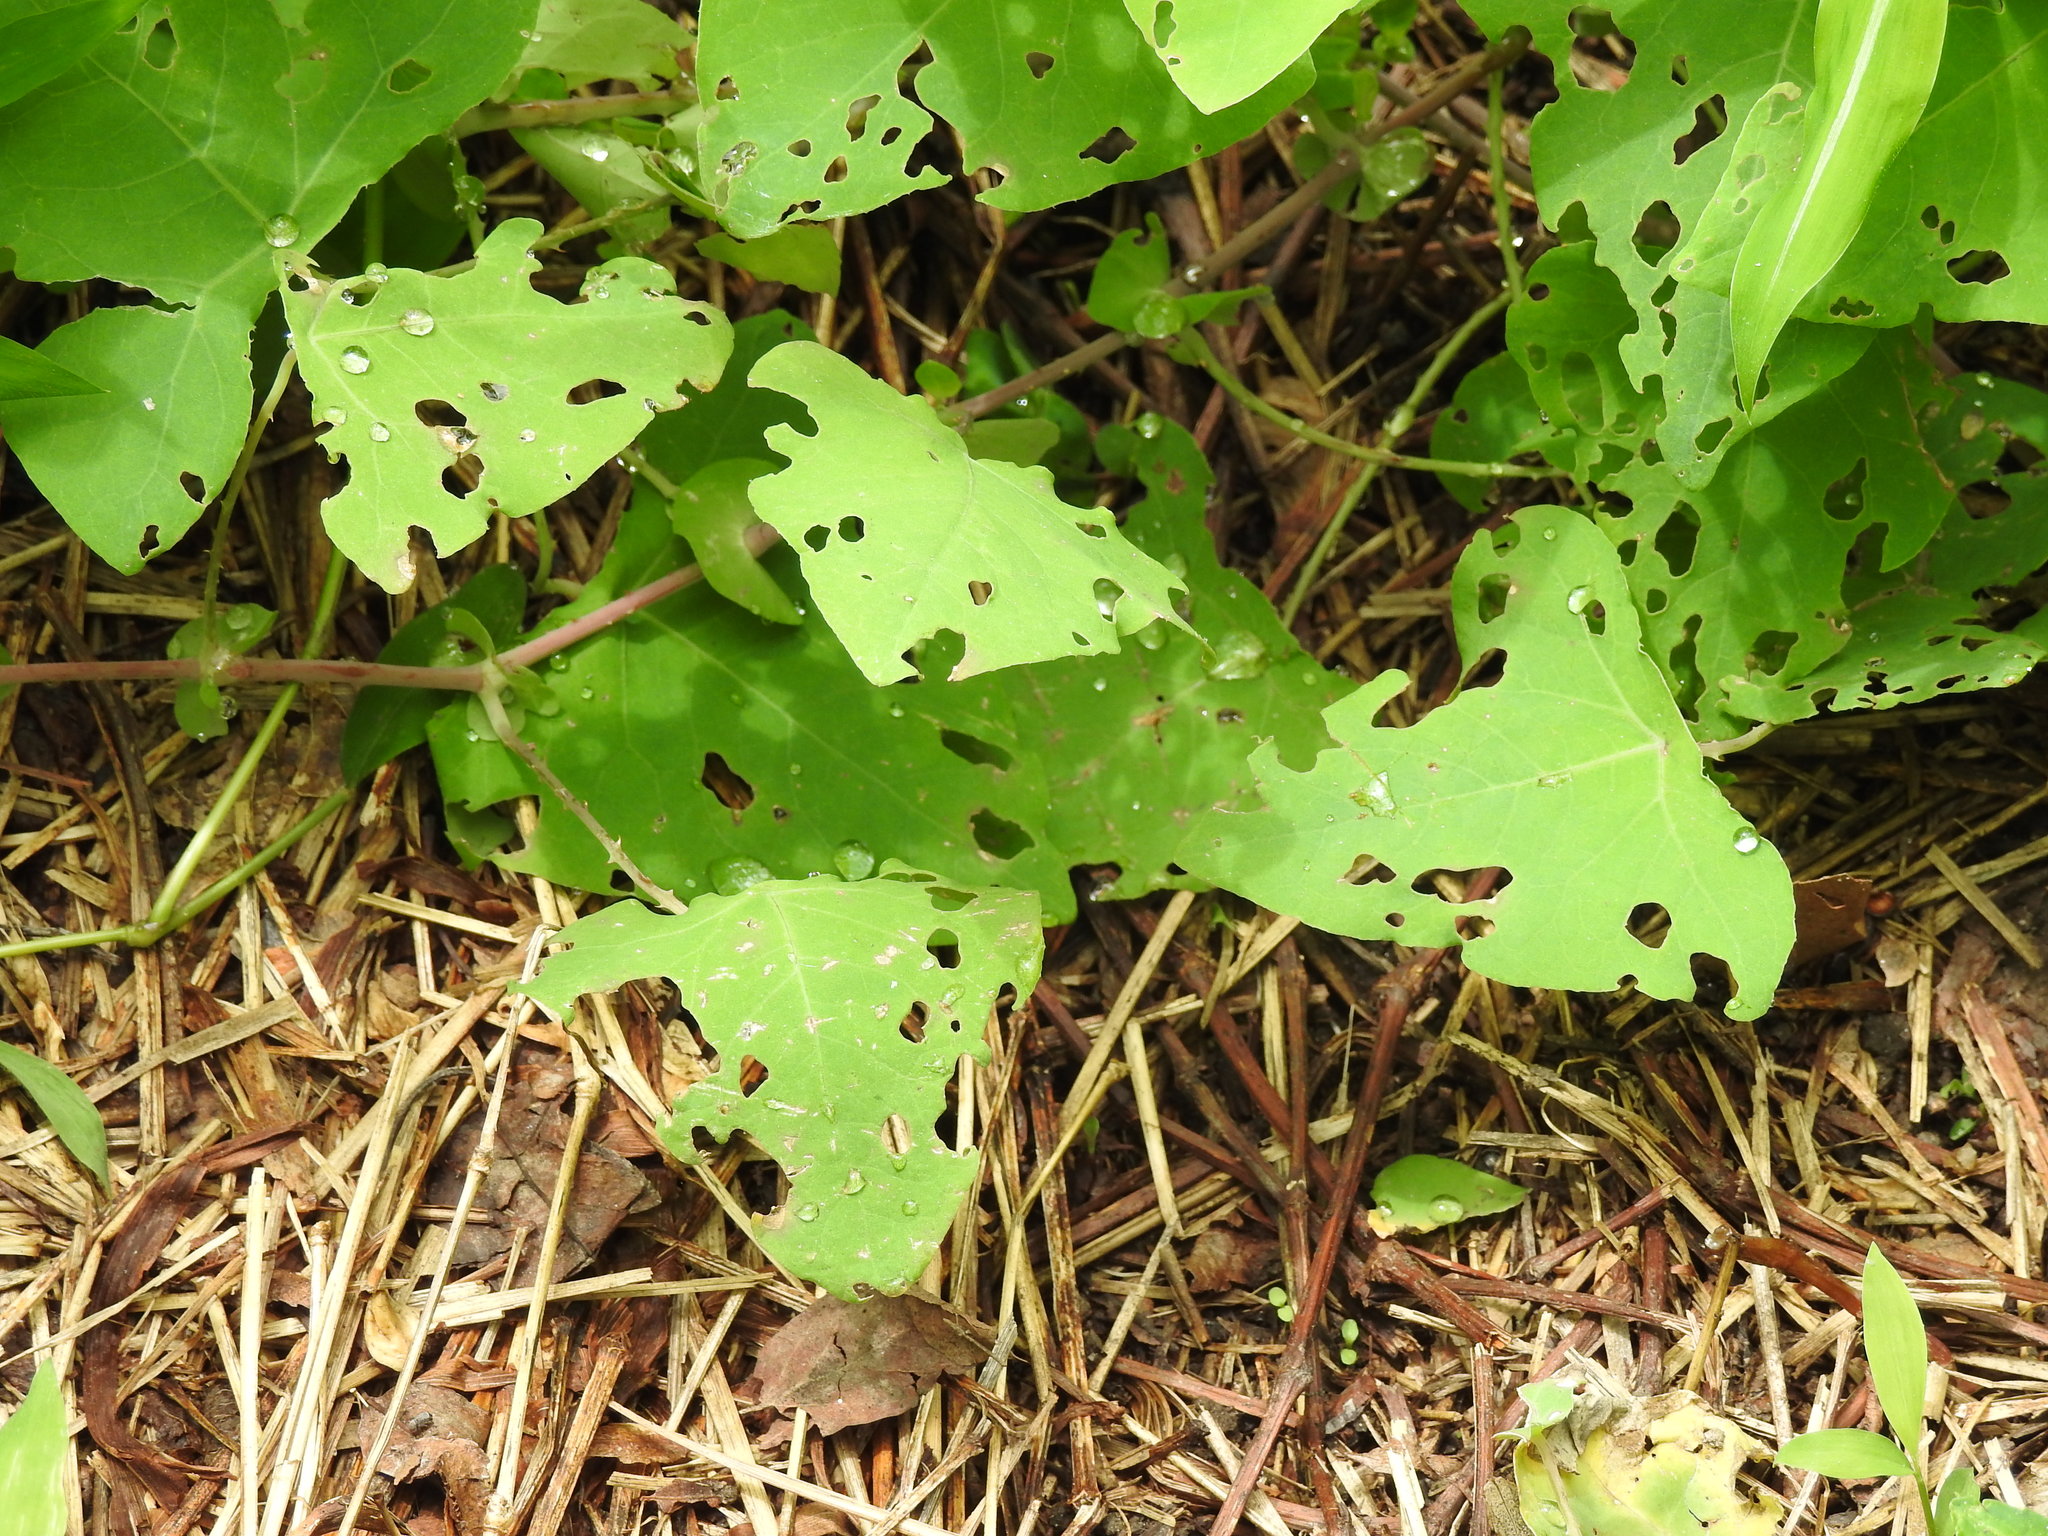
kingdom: Plantae
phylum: Tracheophyta
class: Magnoliopsida
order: Caryophyllales
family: Polygonaceae
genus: Persicaria
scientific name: Persicaria perfoliata
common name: Asiatic tearthumb
